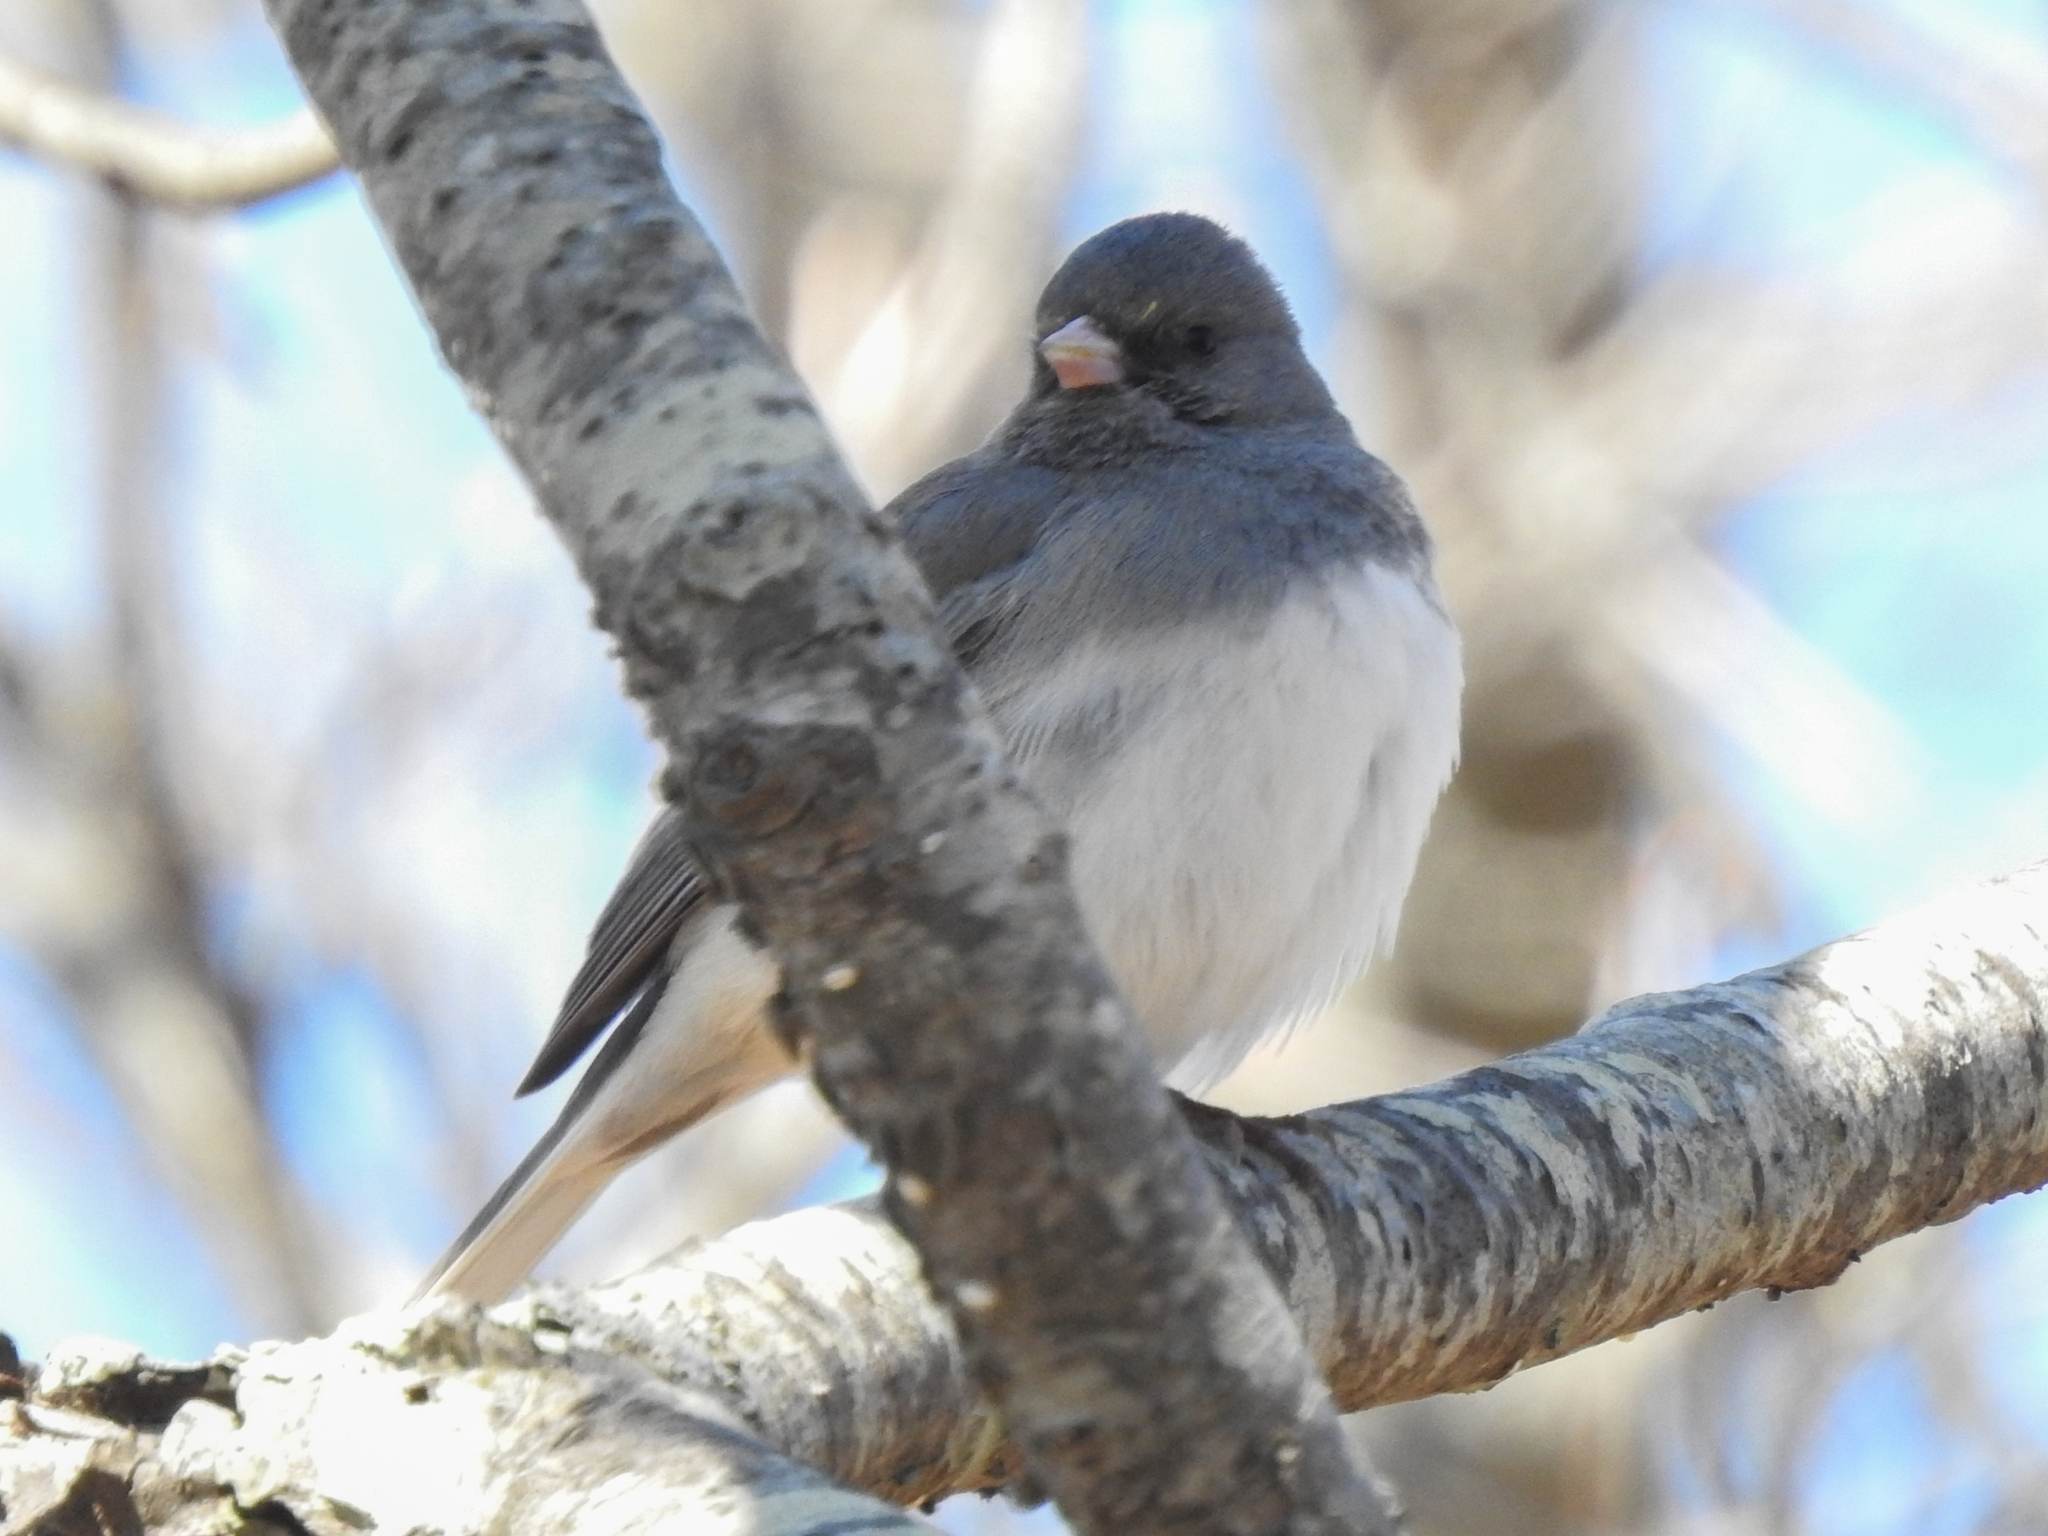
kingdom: Animalia
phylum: Chordata
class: Aves
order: Passeriformes
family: Passerellidae
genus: Junco
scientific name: Junco hyemalis
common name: Dark-eyed junco
